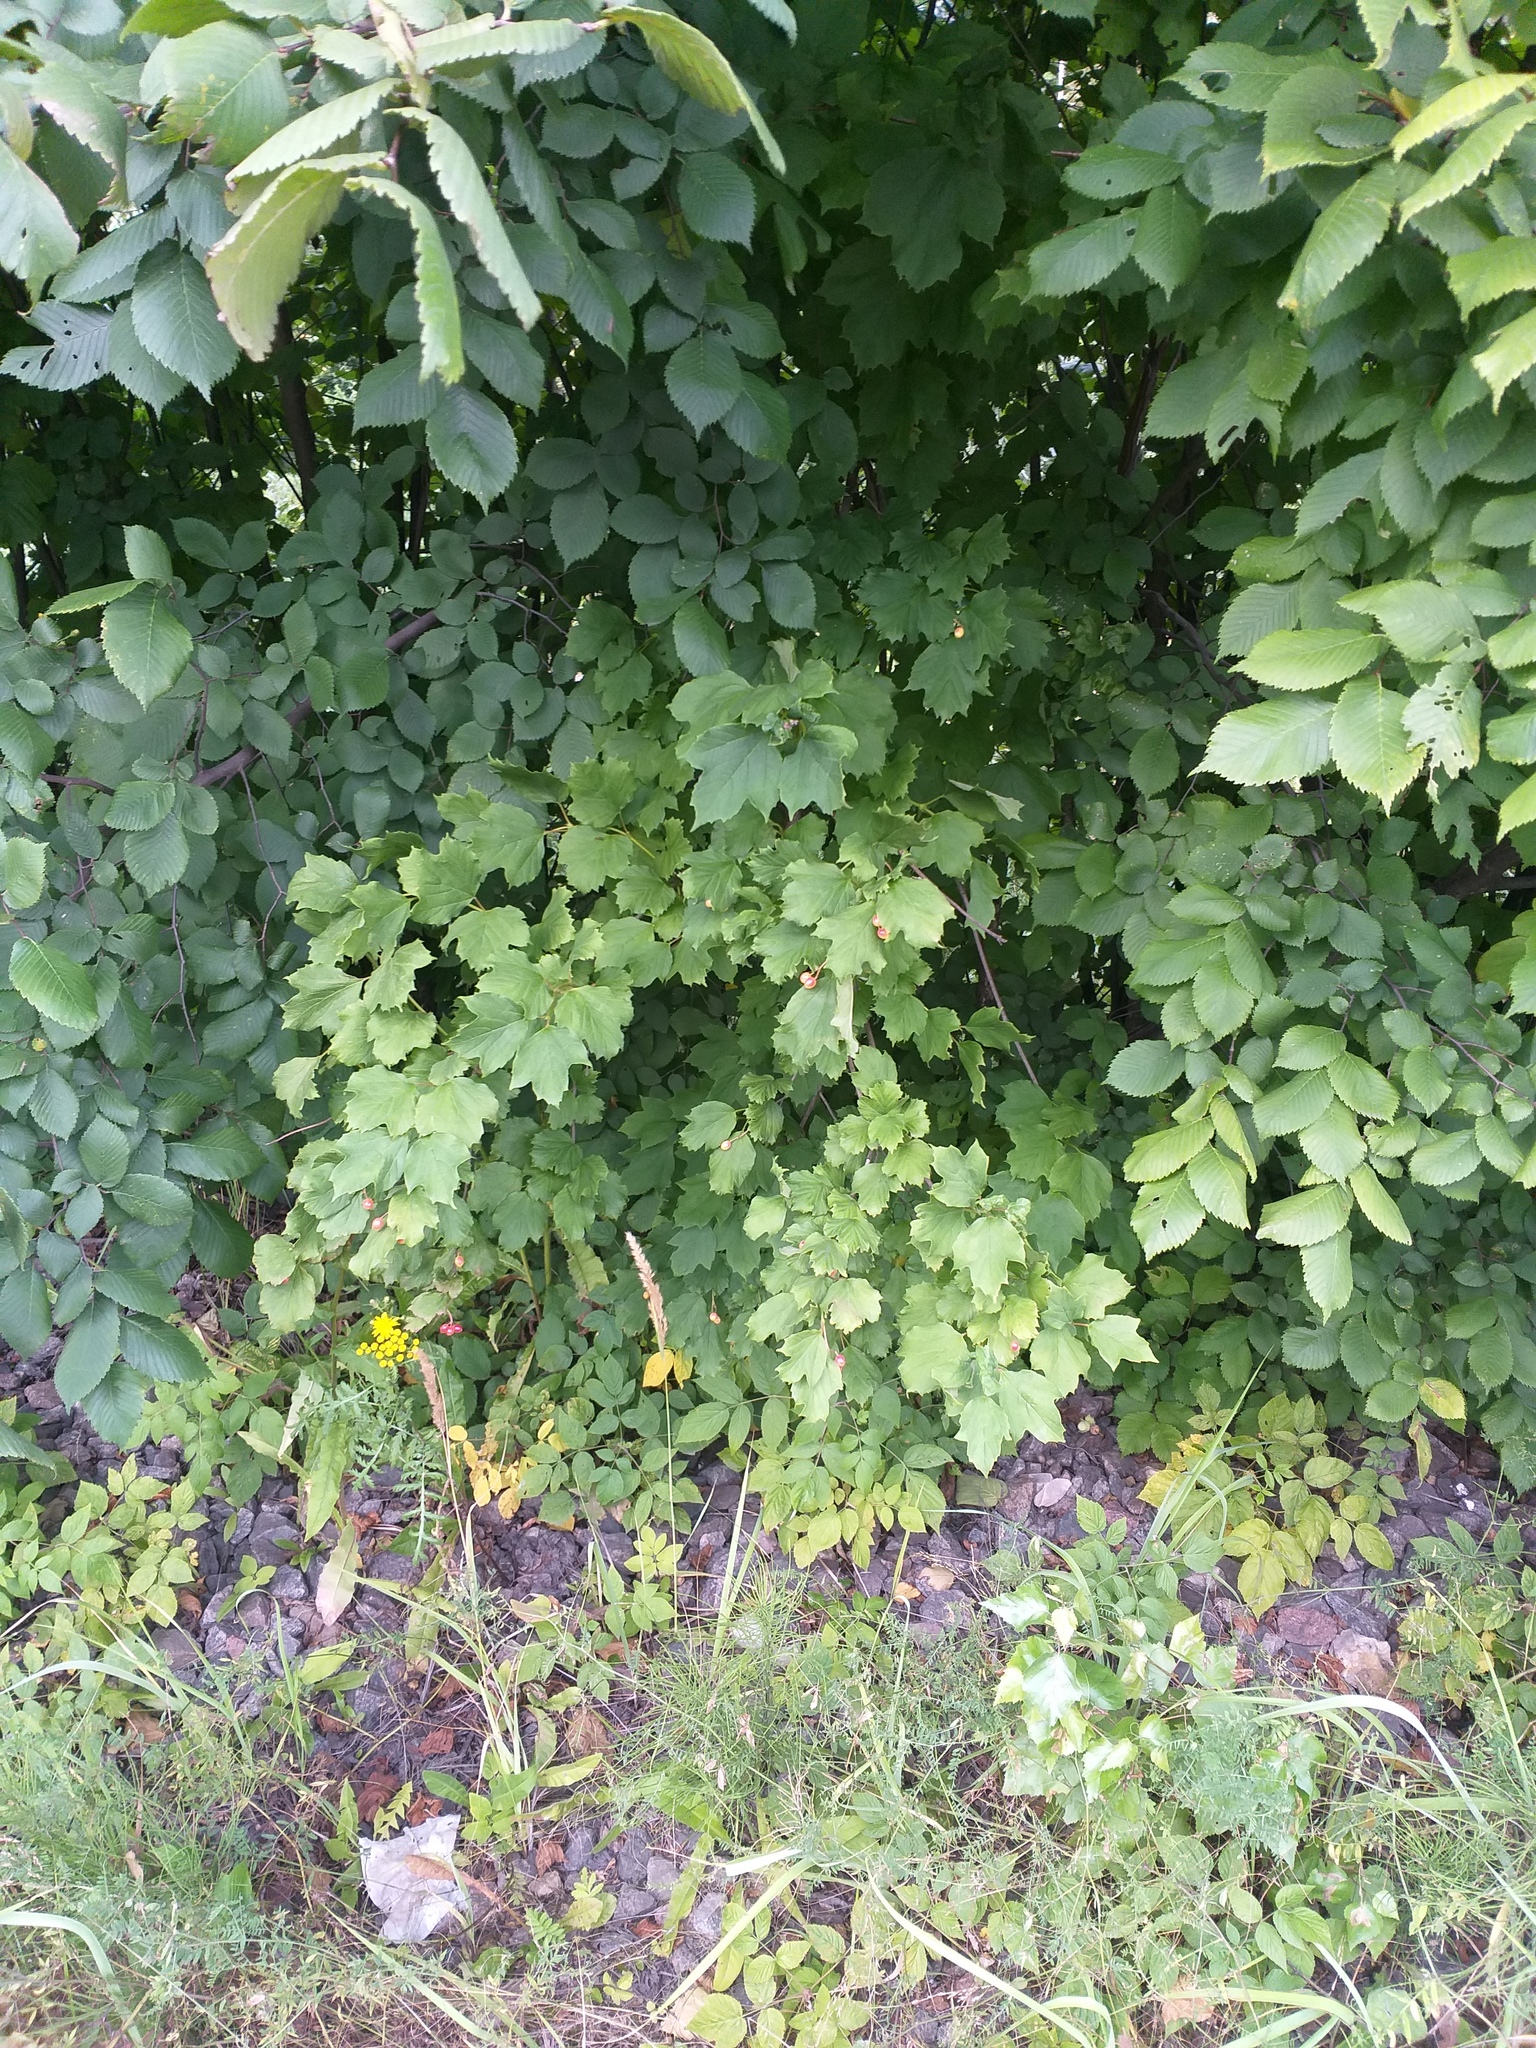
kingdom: Plantae
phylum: Tracheophyta
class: Magnoliopsida
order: Dipsacales
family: Viburnaceae
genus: Viburnum
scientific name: Viburnum opulus
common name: Guelder-rose
